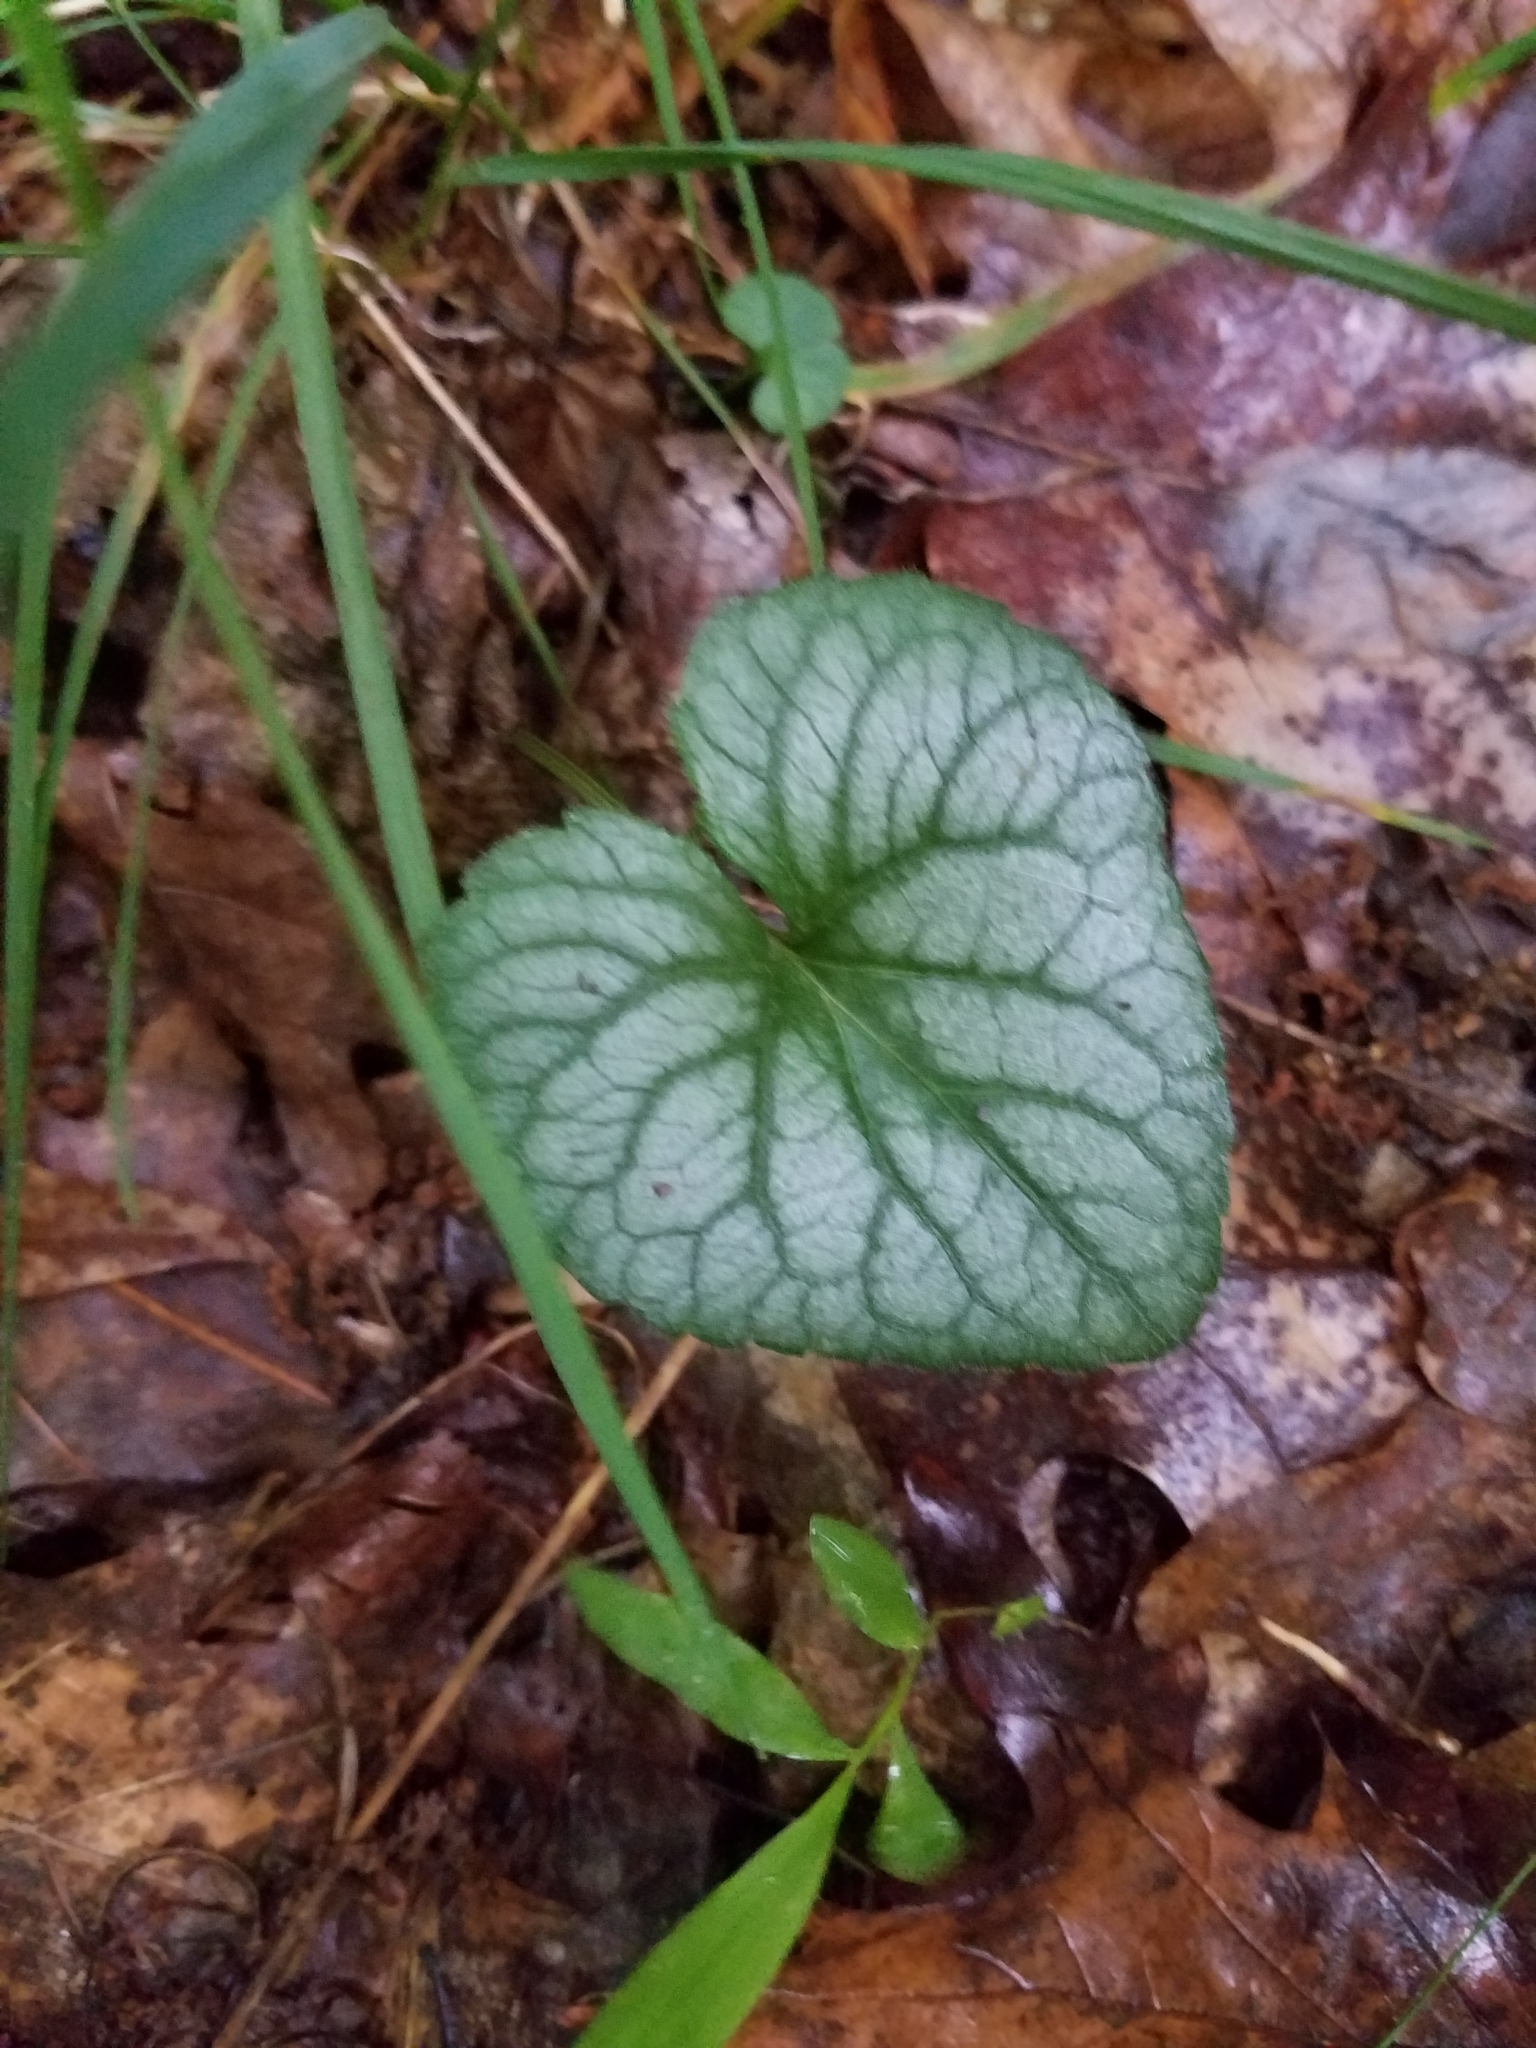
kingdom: Plantae
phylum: Tracheophyta
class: Magnoliopsida
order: Boraginales
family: Boraginaceae
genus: Brunnera
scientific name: Brunnera macrophylla
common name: Great forget-me-not
